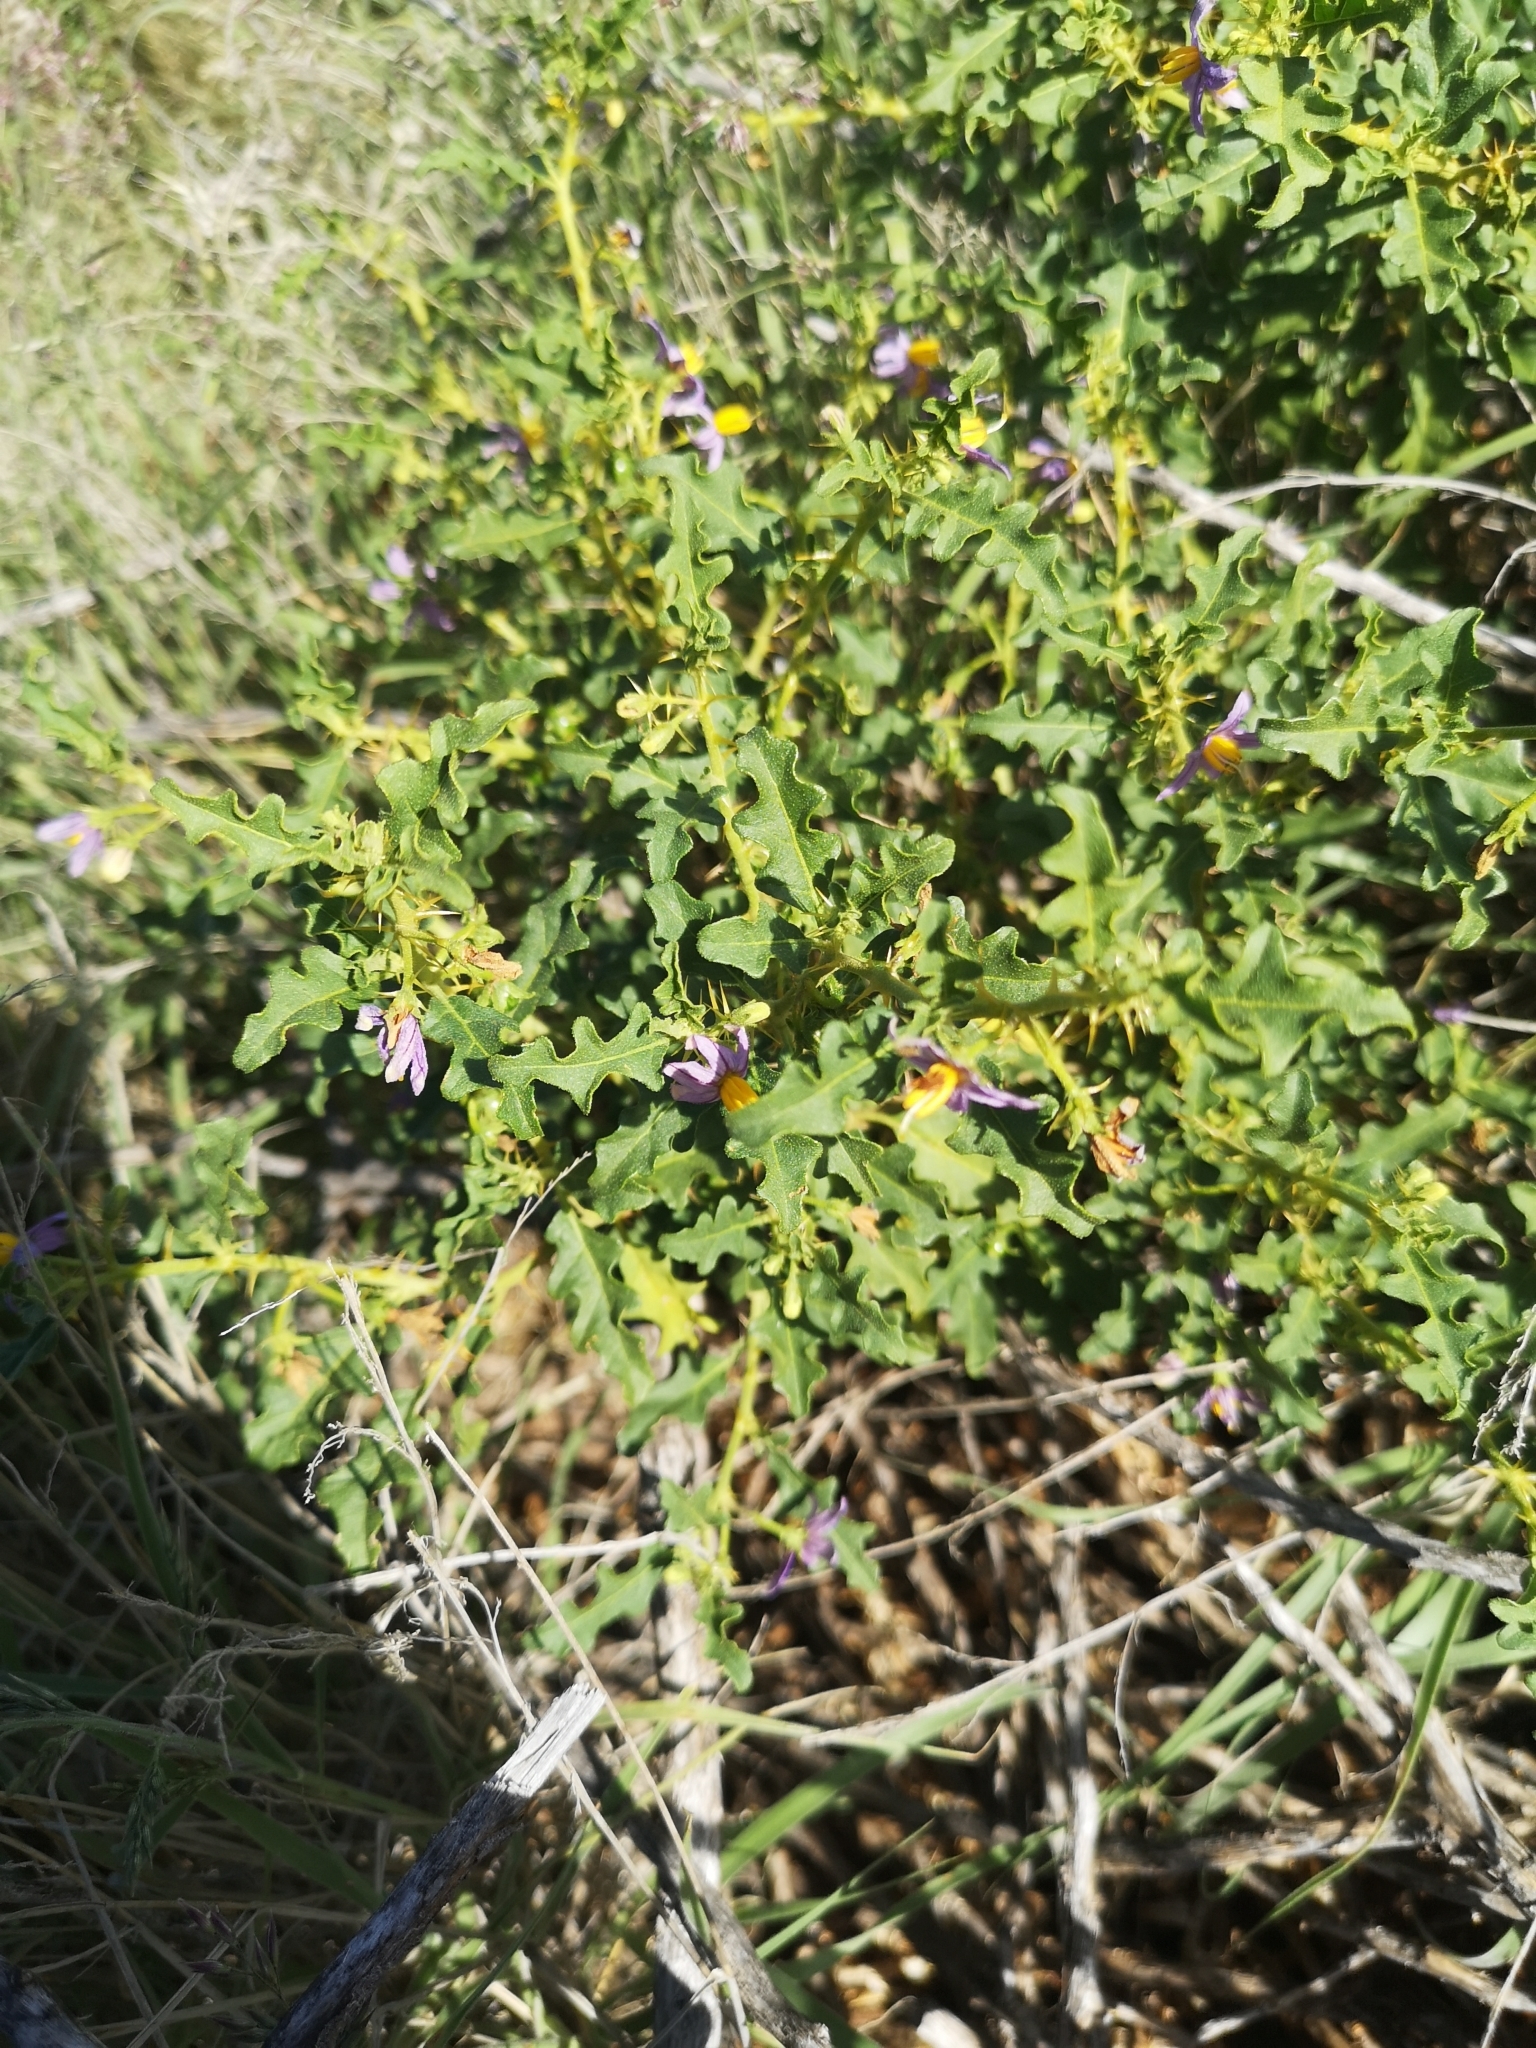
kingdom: Plantae
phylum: Tracheophyta
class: Magnoliopsida
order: Solanales
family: Solanaceae
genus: Solanum
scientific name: Solanum capense
